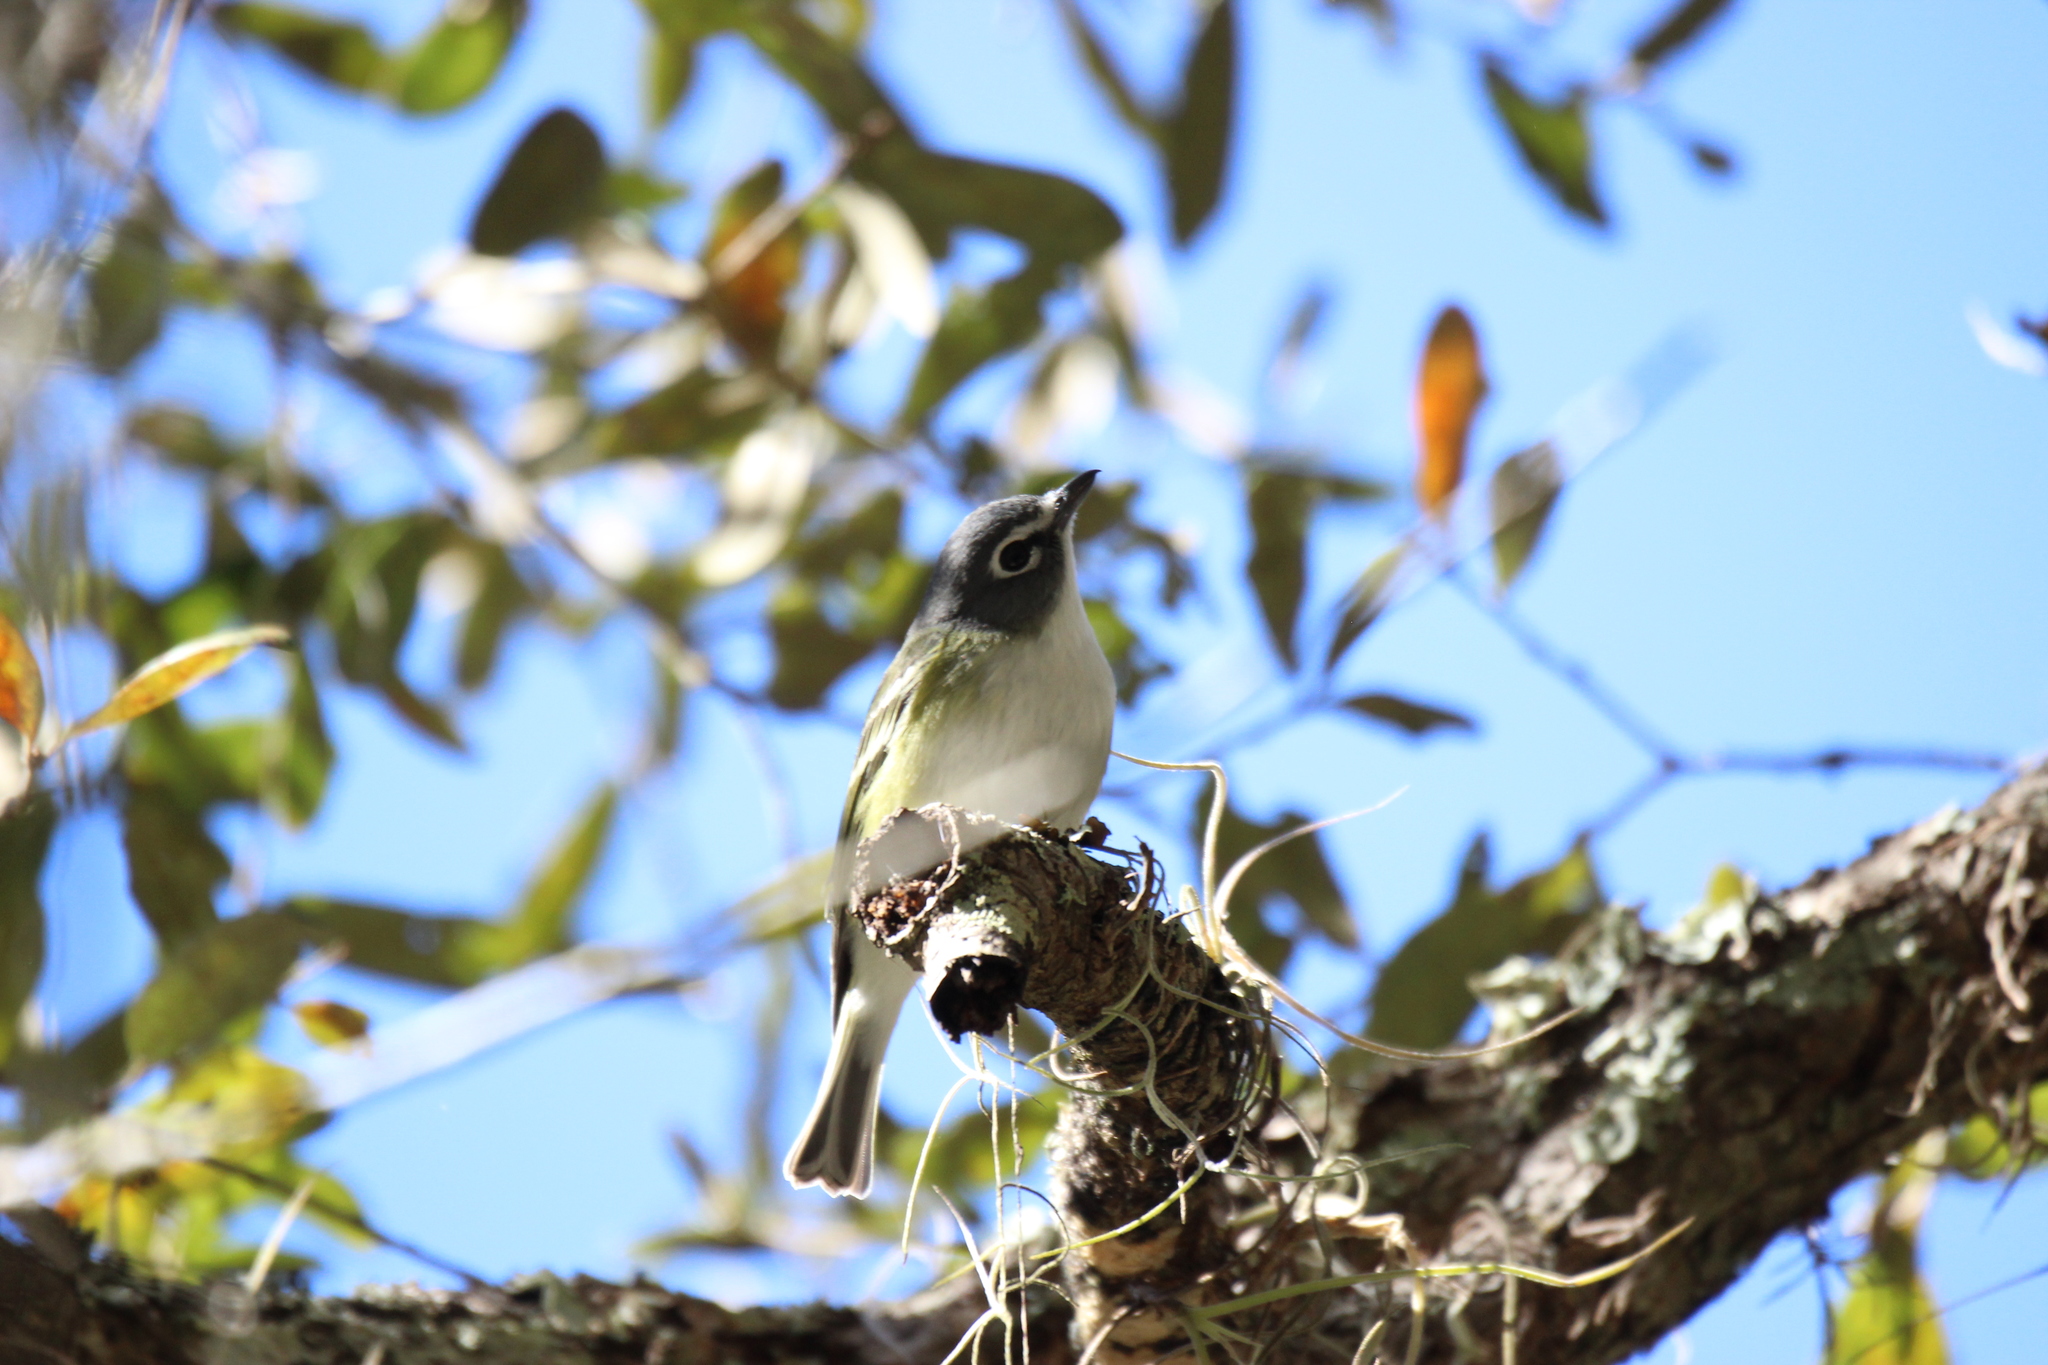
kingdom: Animalia
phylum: Chordata
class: Aves
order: Passeriformes
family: Vireonidae
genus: Vireo
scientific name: Vireo solitarius
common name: Blue-headed vireo
